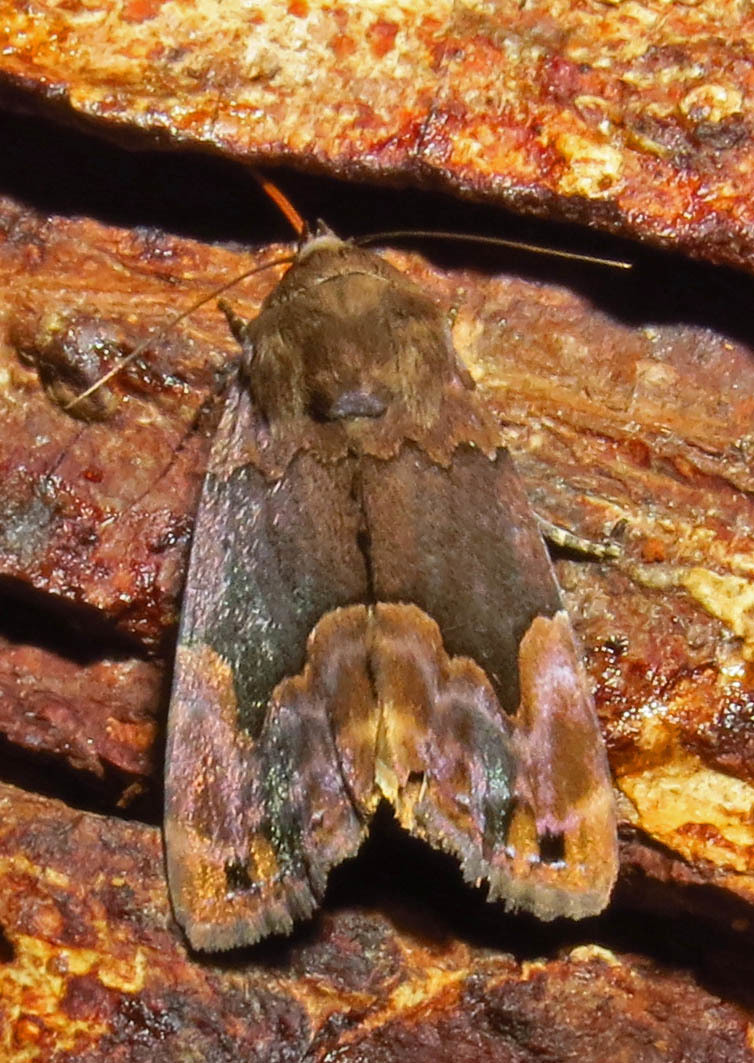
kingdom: Animalia
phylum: Arthropoda
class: Insecta
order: Lepidoptera
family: Erebidae
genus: Dinumma
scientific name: Dinumma deponens
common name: Purplish moth
